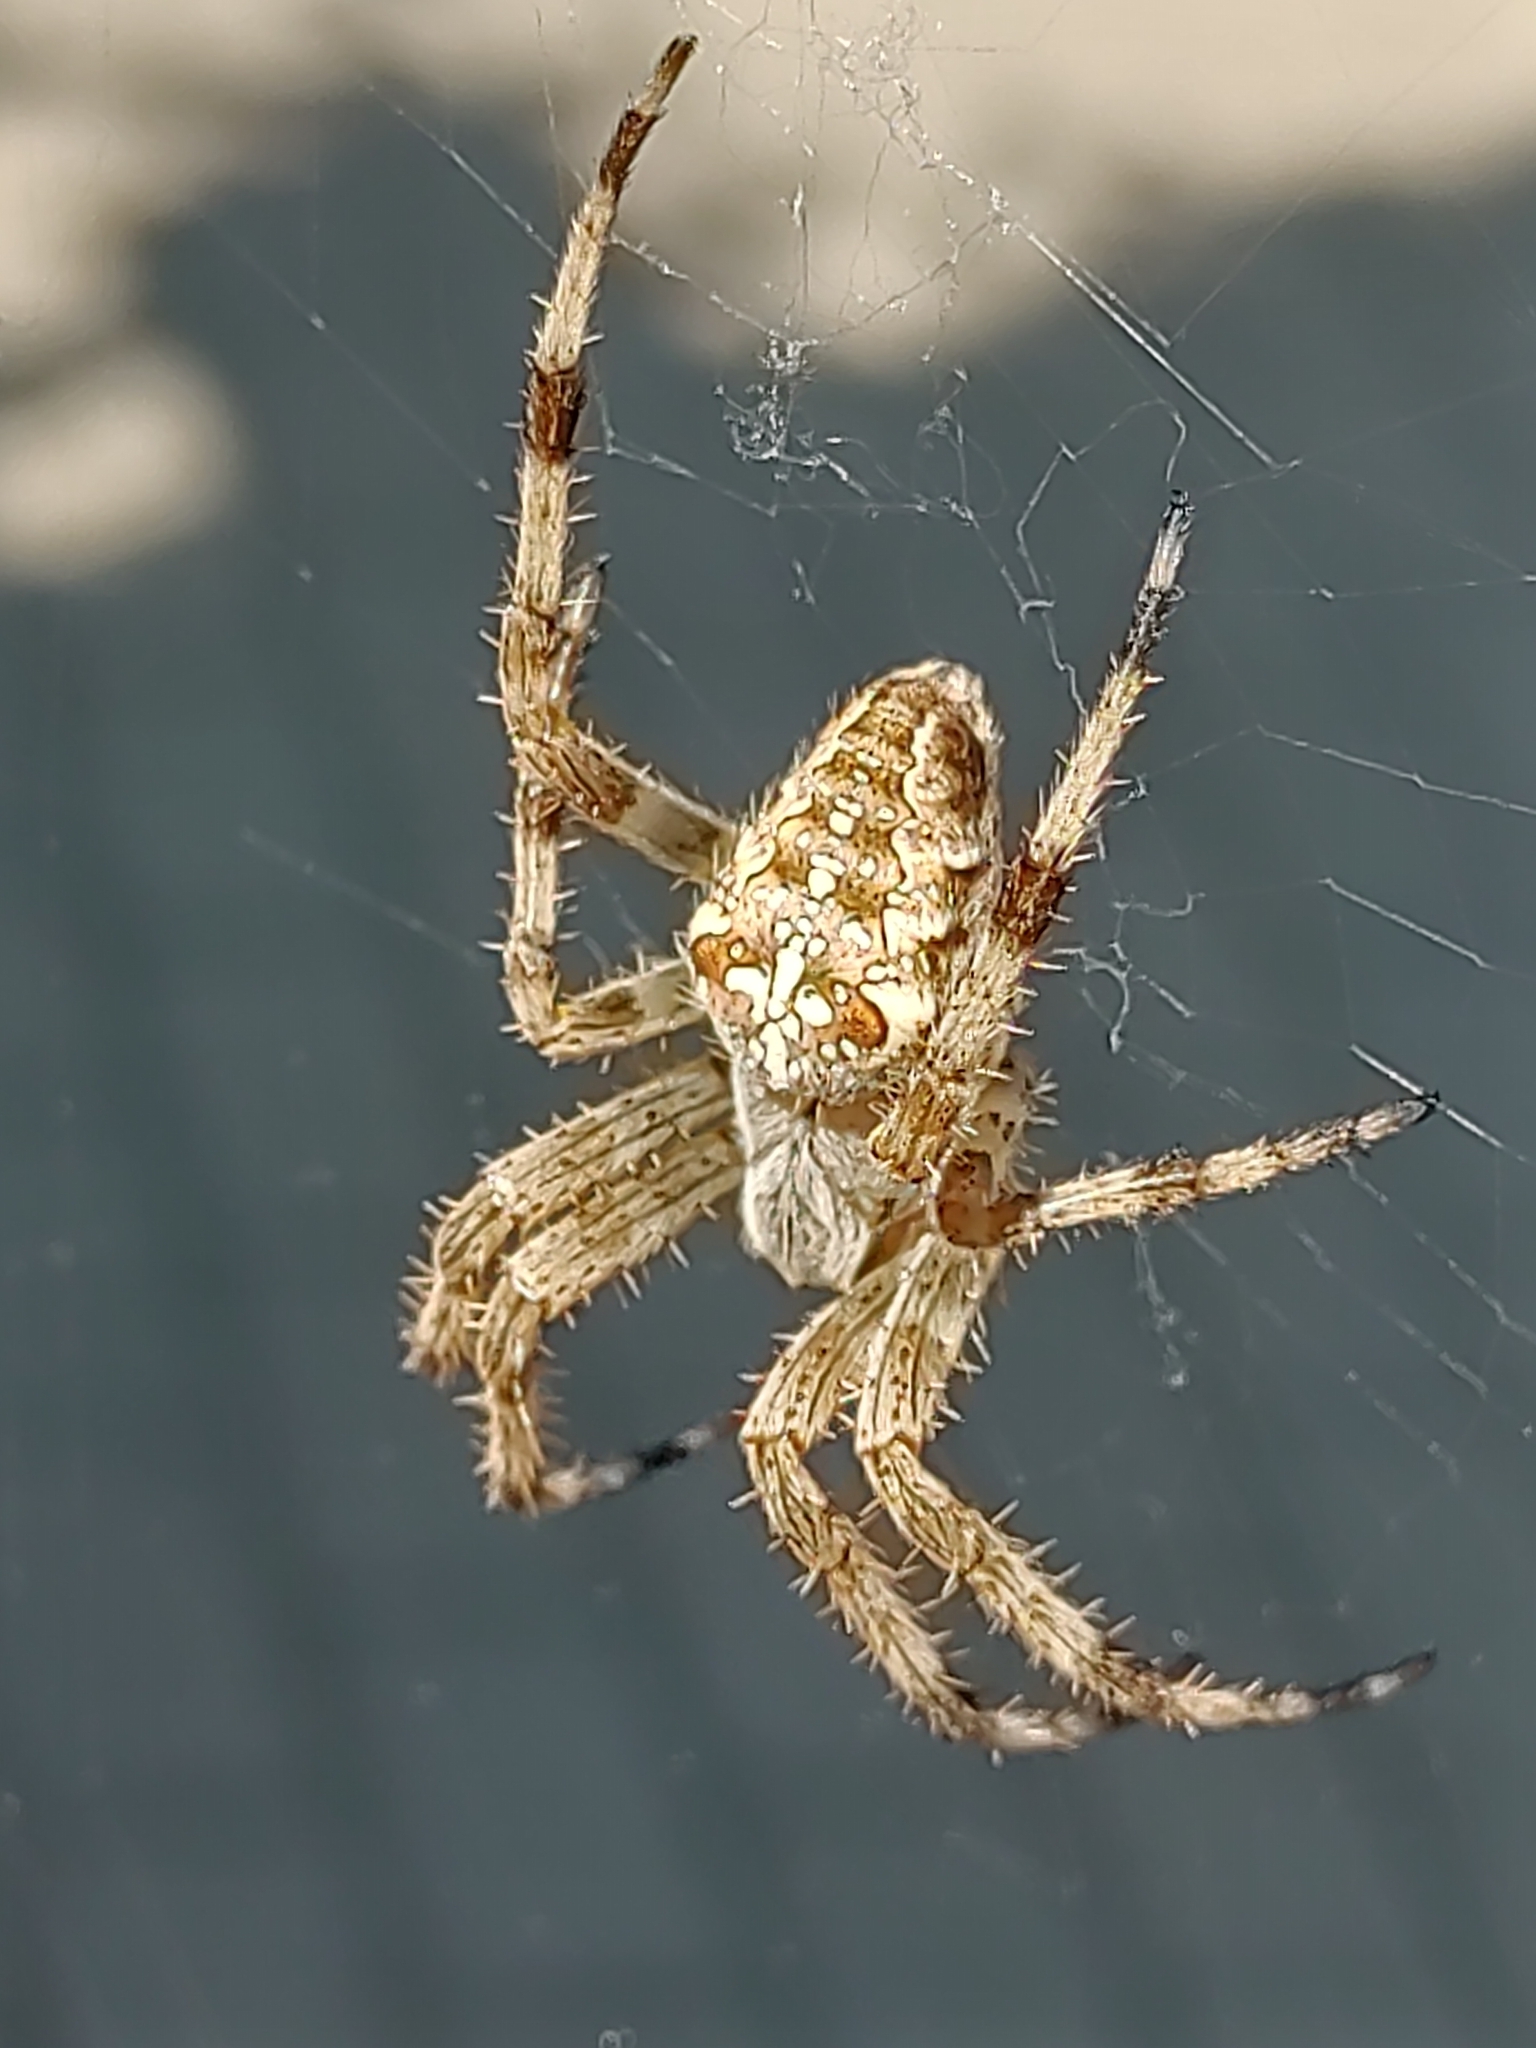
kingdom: Animalia
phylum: Arthropoda
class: Arachnida
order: Araneae
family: Araneidae
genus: Araneus
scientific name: Araneus diadematus
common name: Cross orbweaver
